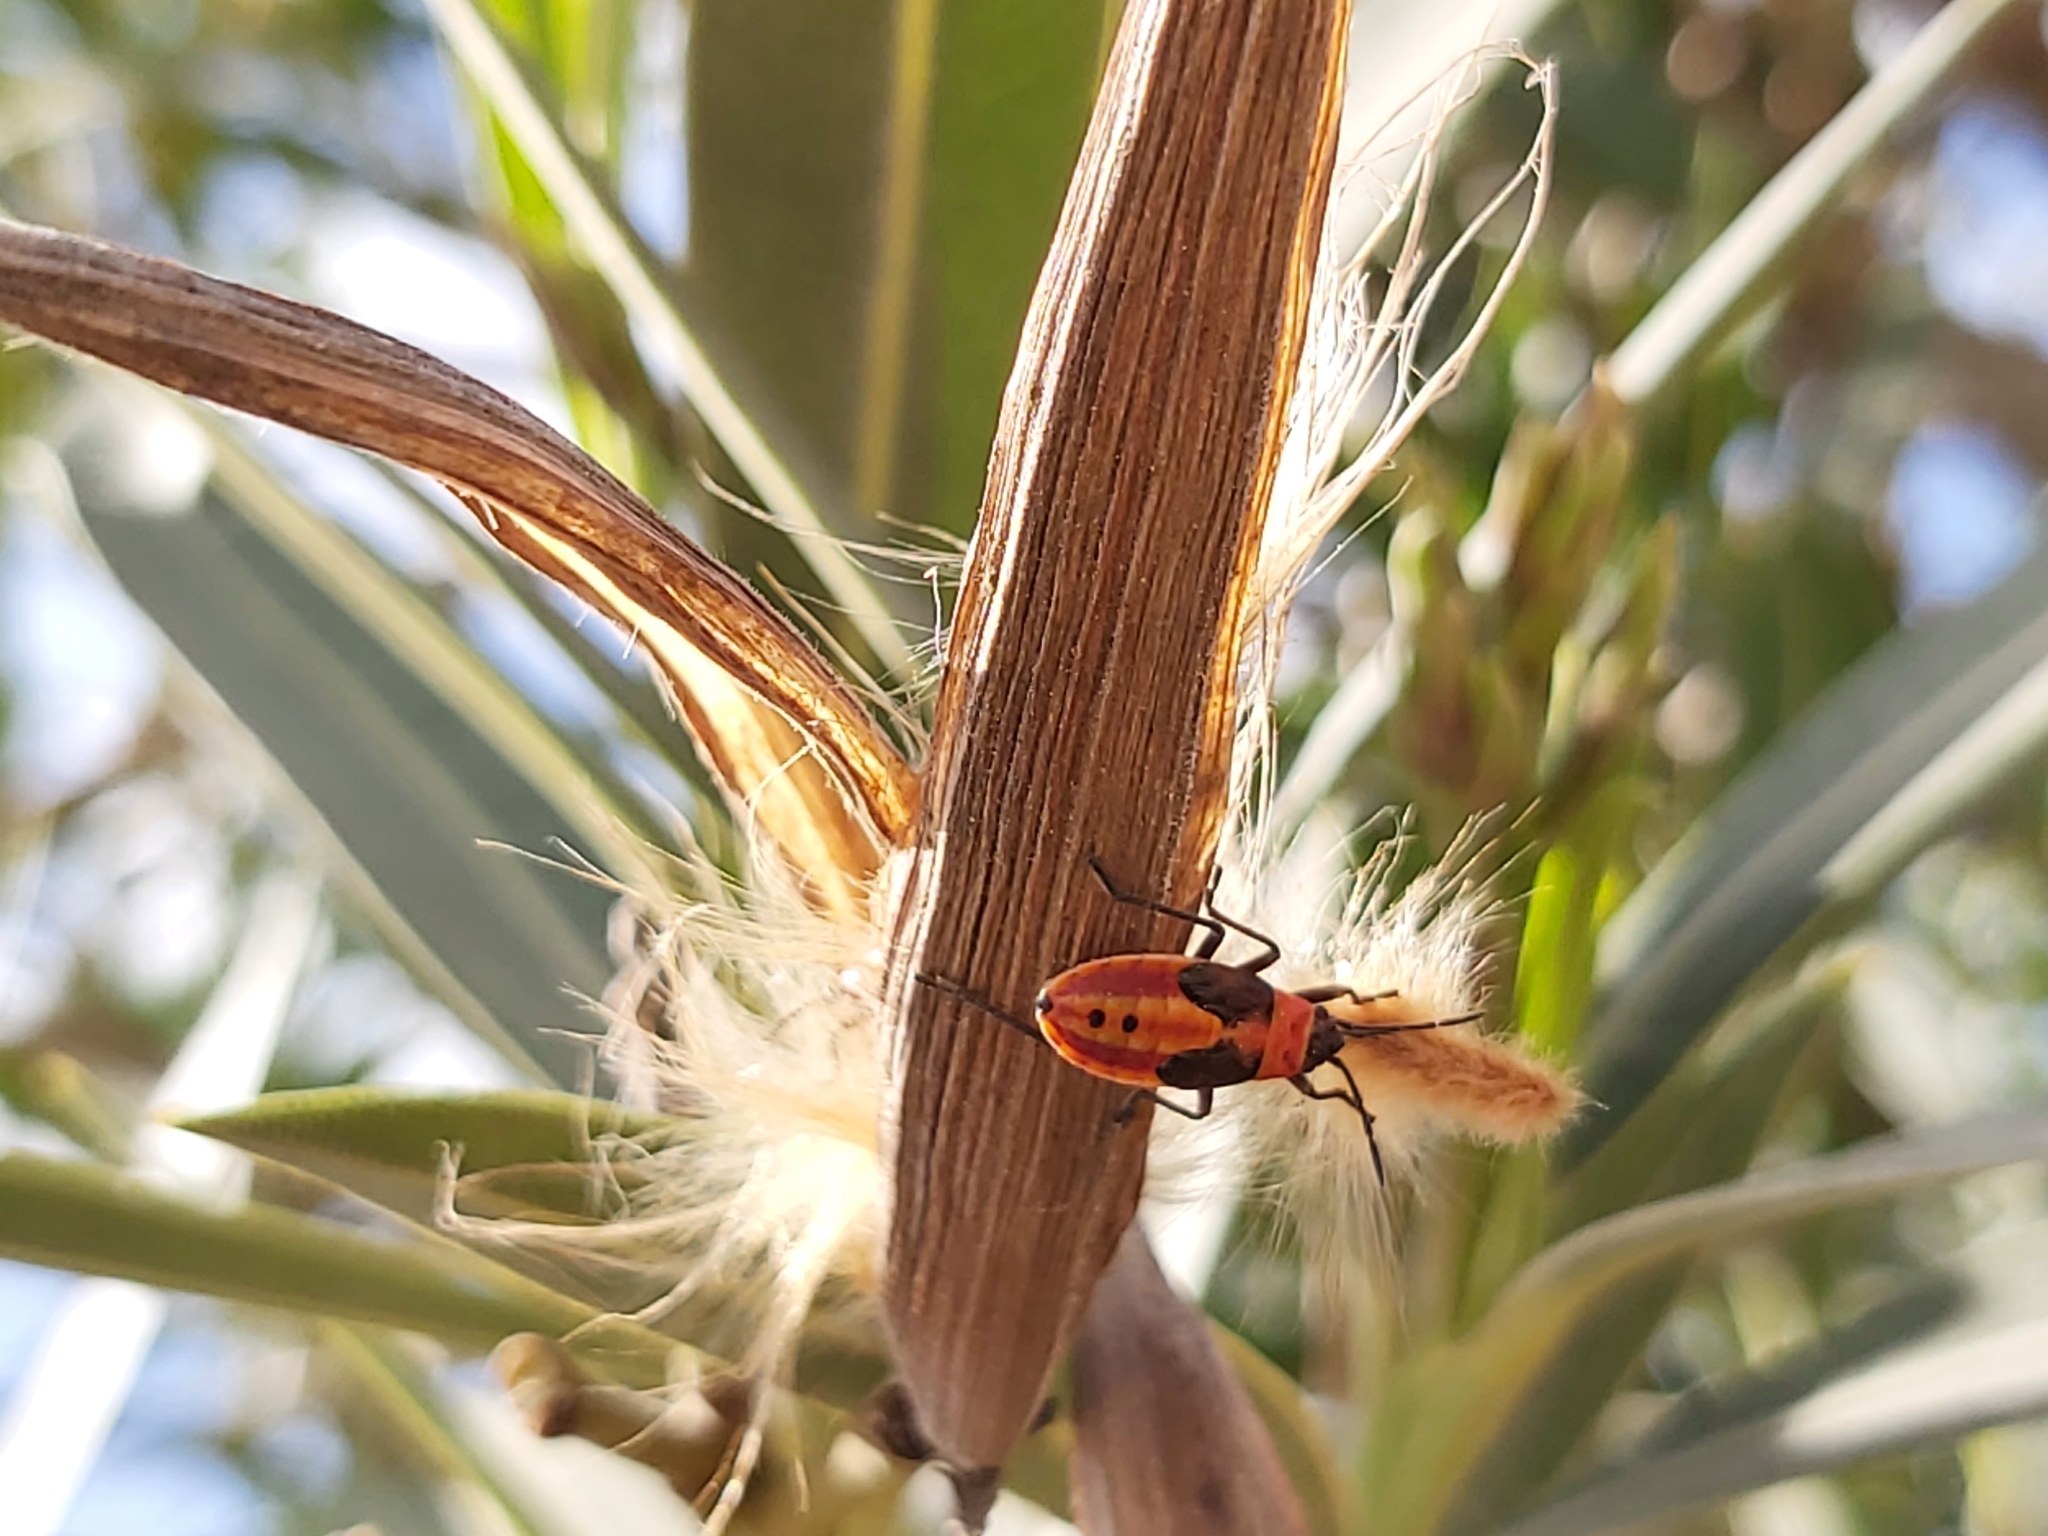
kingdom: Animalia
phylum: Arthropoda
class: Insecta
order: Hemiptera
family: Lygaeidae
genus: Lygaeus
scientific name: Lygaeus creticus
